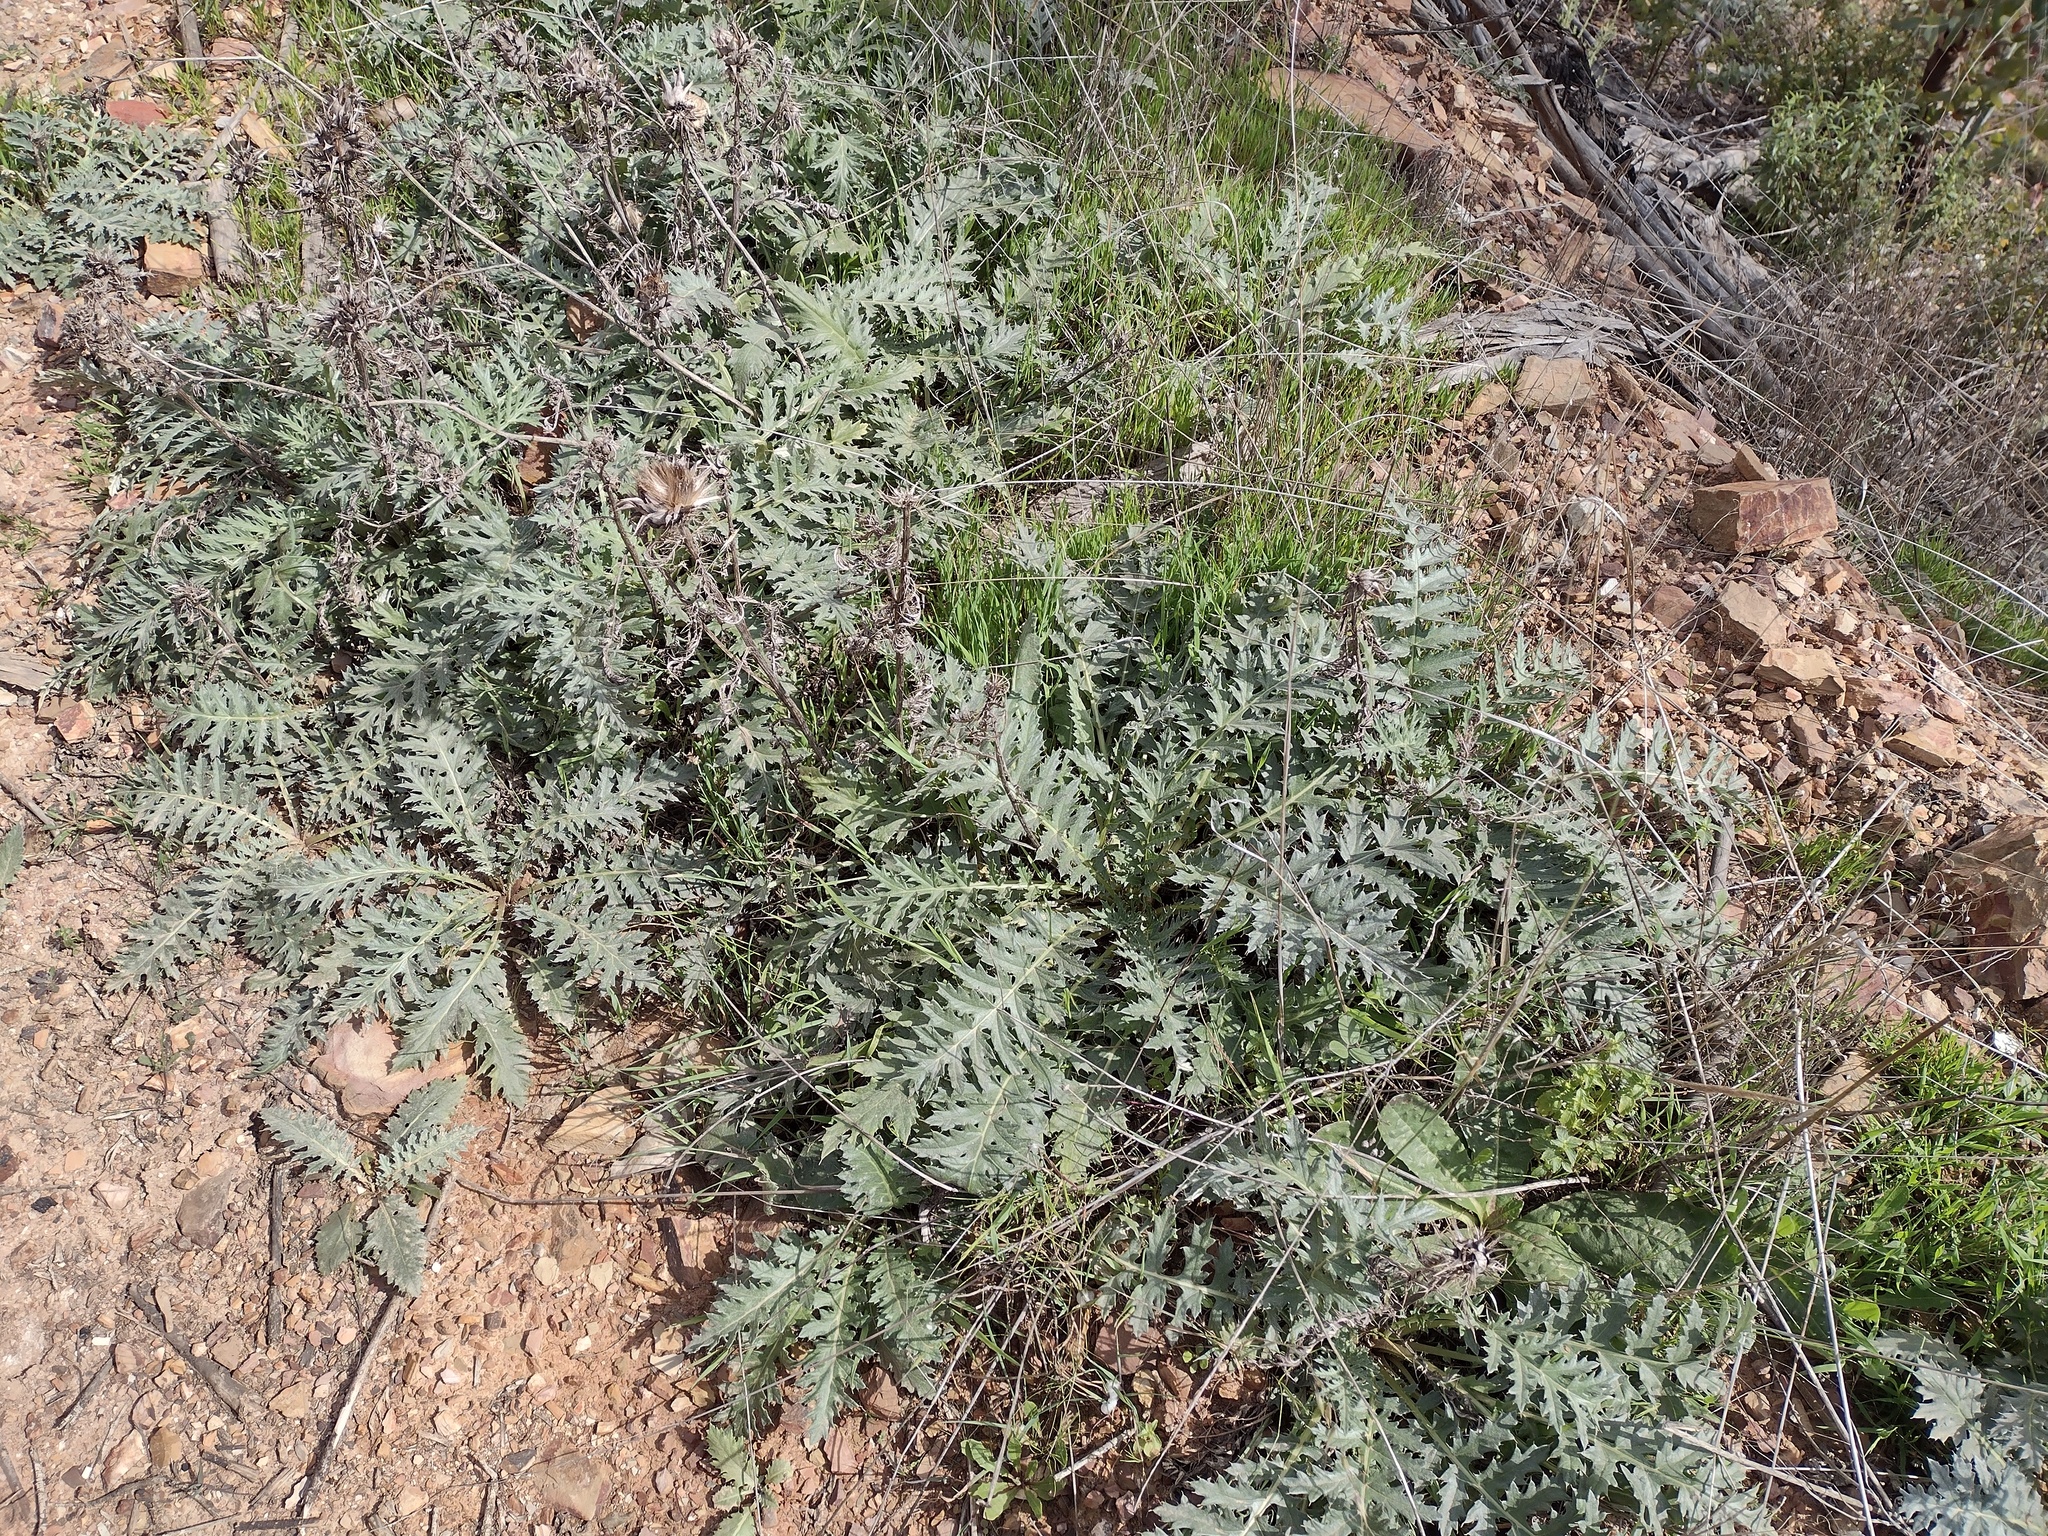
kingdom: Plantae
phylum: Tracheophyta
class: Magnoliopsida
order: Asterales
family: Asteraceae
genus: Helminthotheca
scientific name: Helminthotheca spinosa
